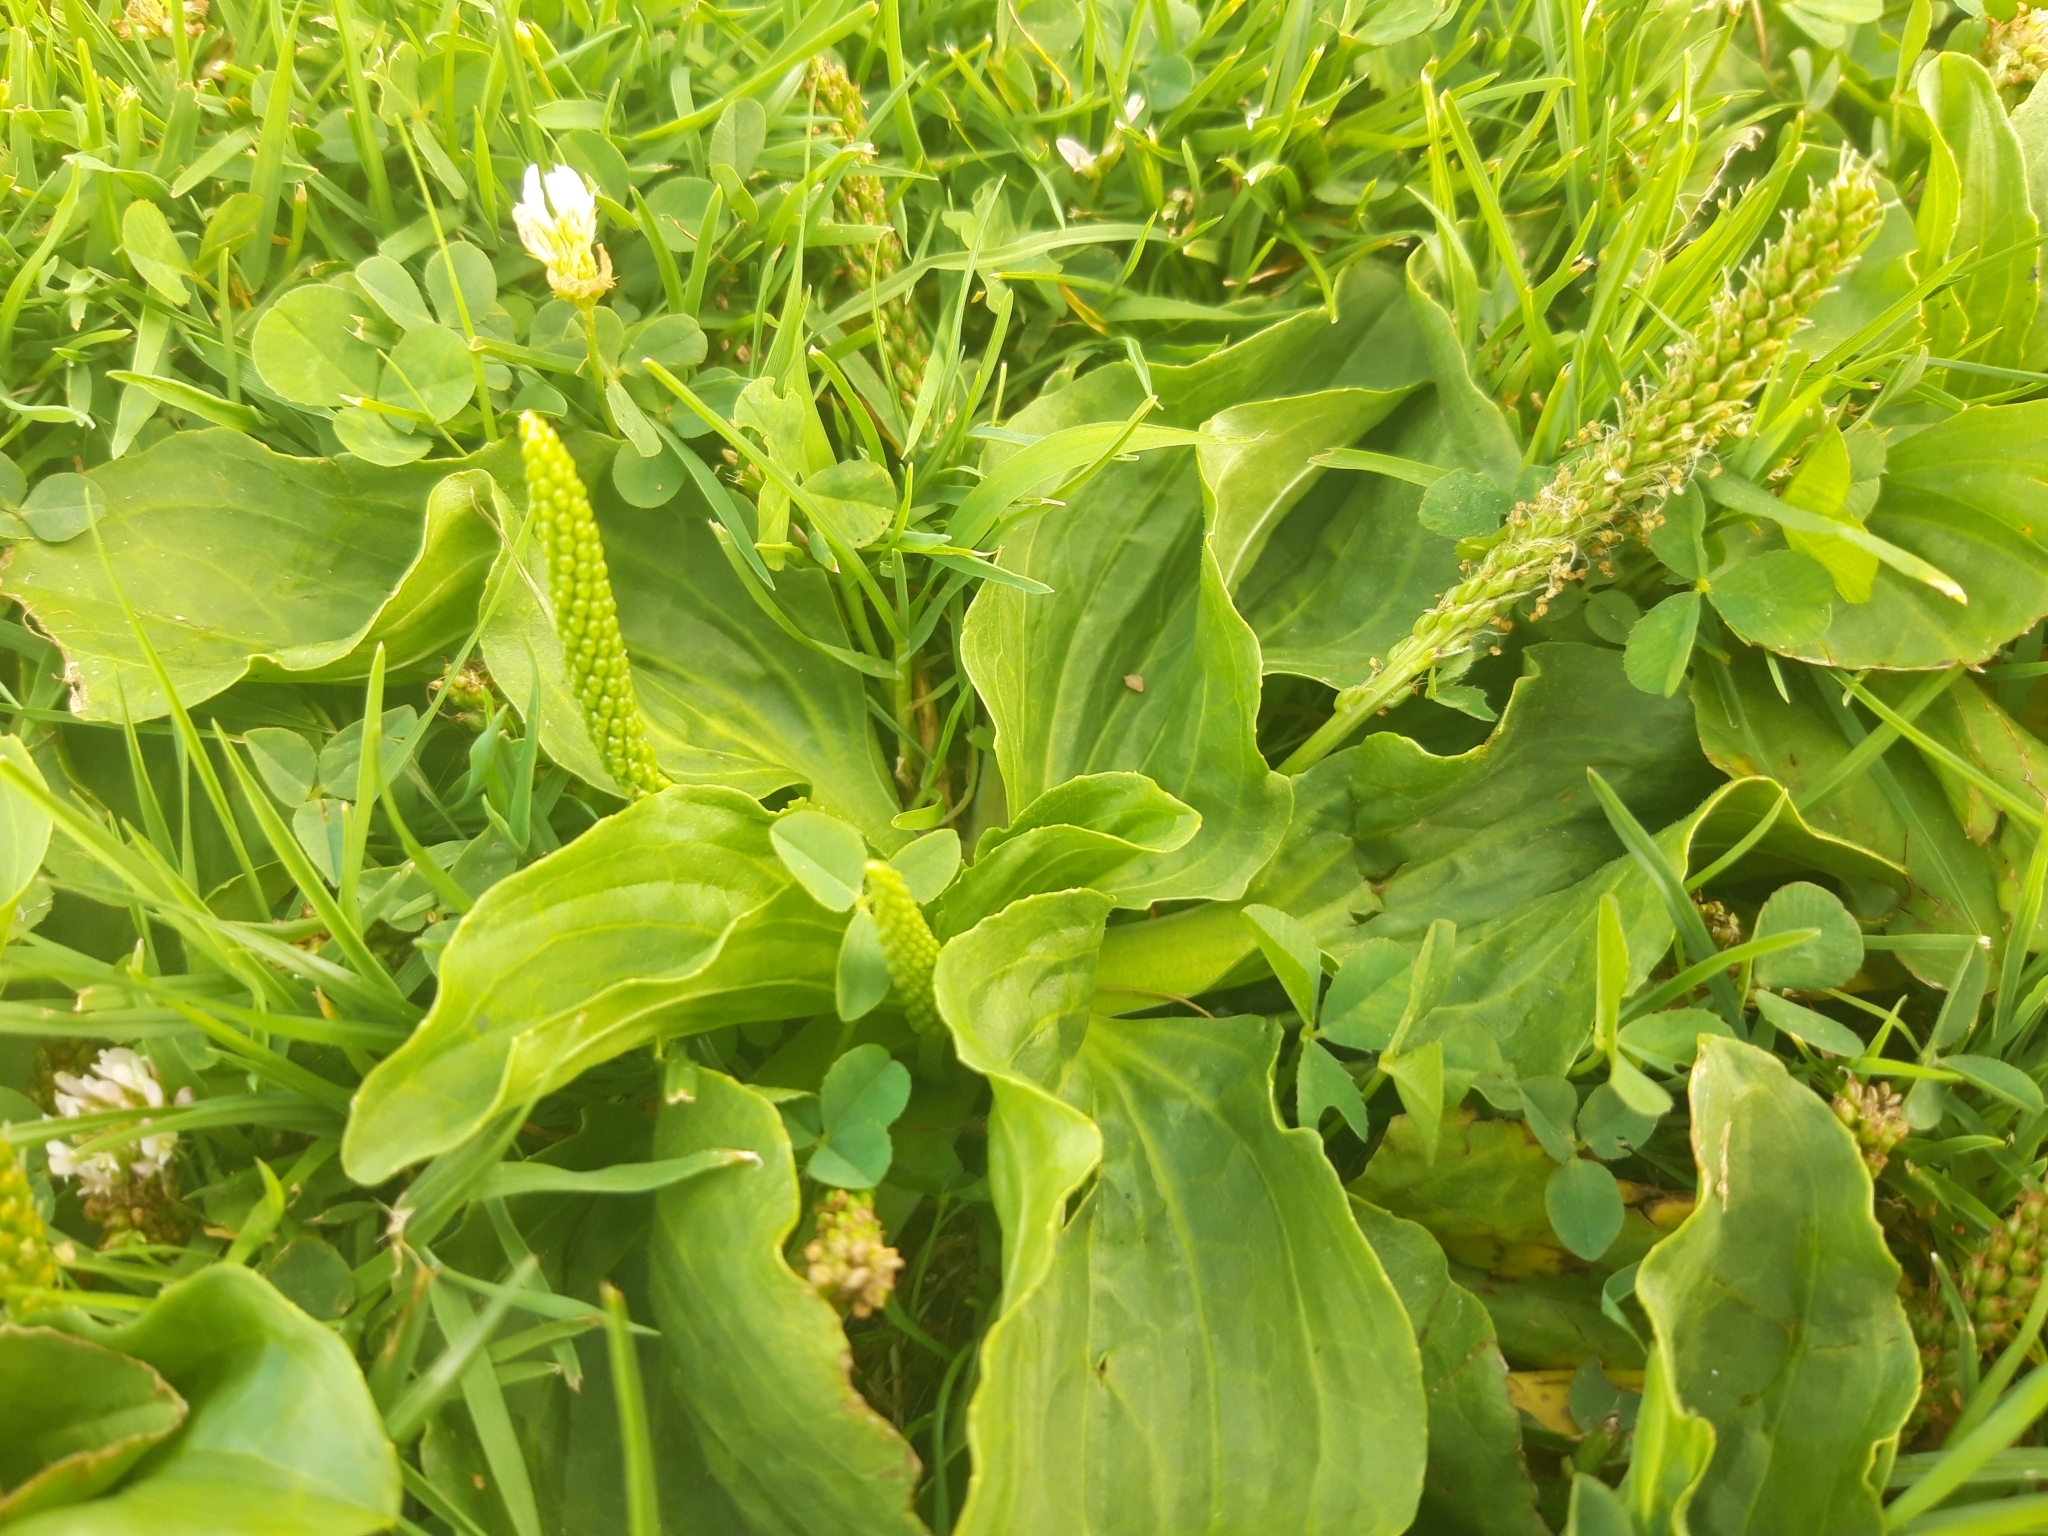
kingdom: Plantae
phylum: Tracheophyta
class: Magnoliopsida
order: Lamiales
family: Plantaginaceae
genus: Plantago
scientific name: Plantago major
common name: Common plantain
